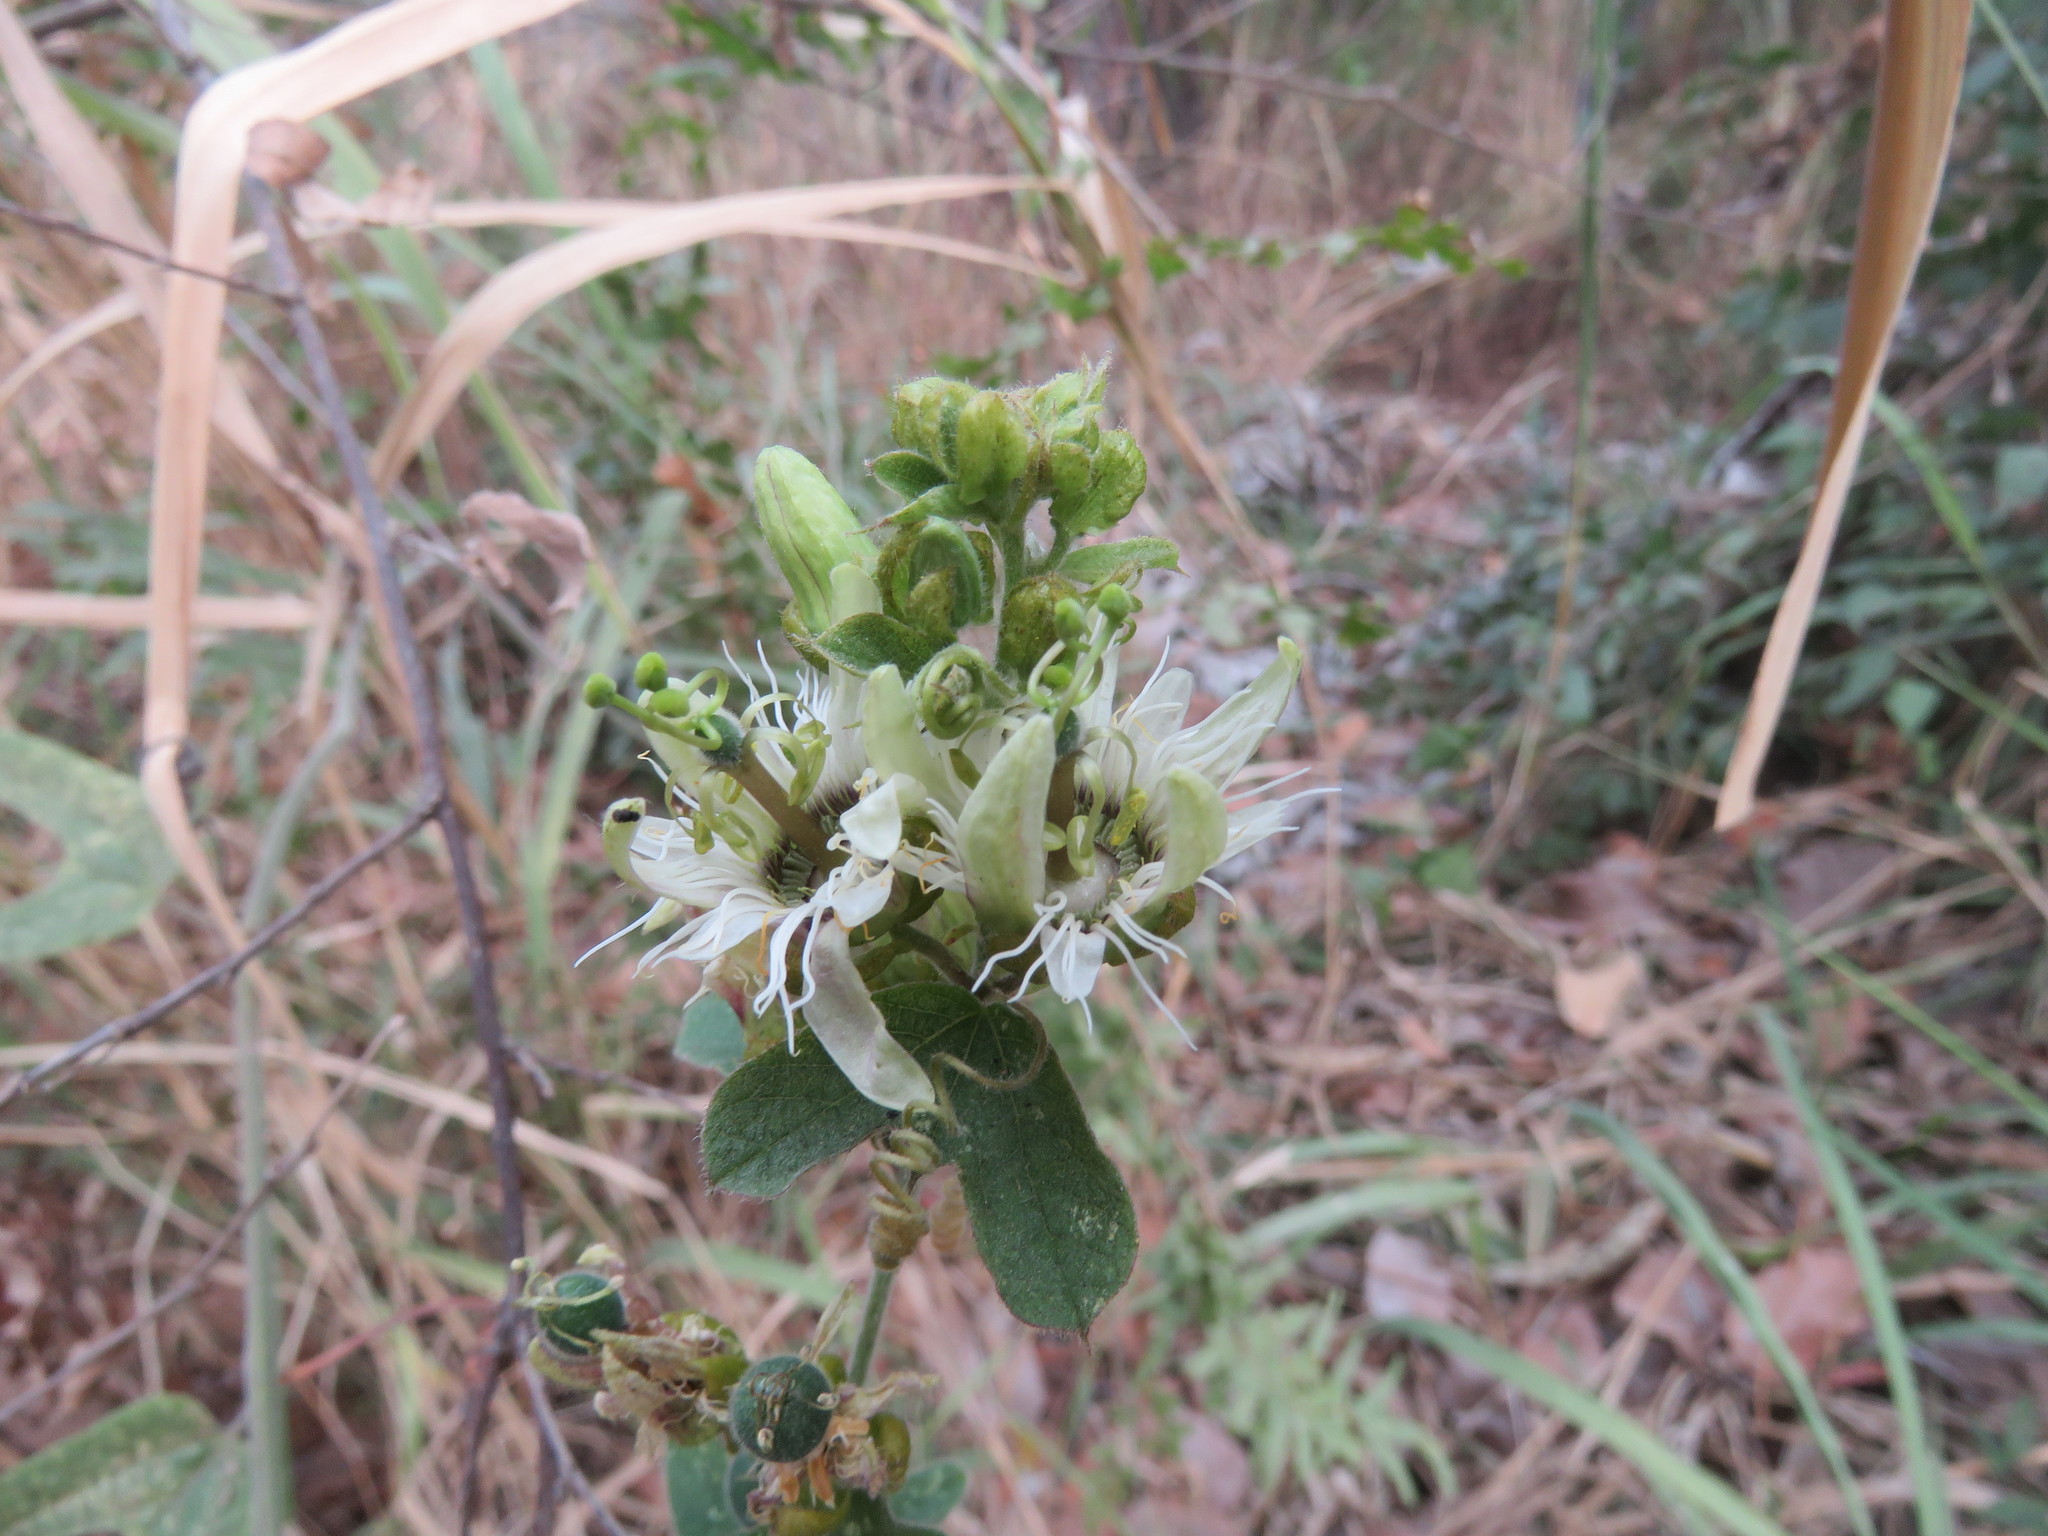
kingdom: Plantae
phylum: Tracheophyta
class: Magnoliopsida
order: Malpighiales
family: Passifloraceae
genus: Passiflora
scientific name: Passiflora porphyretica
